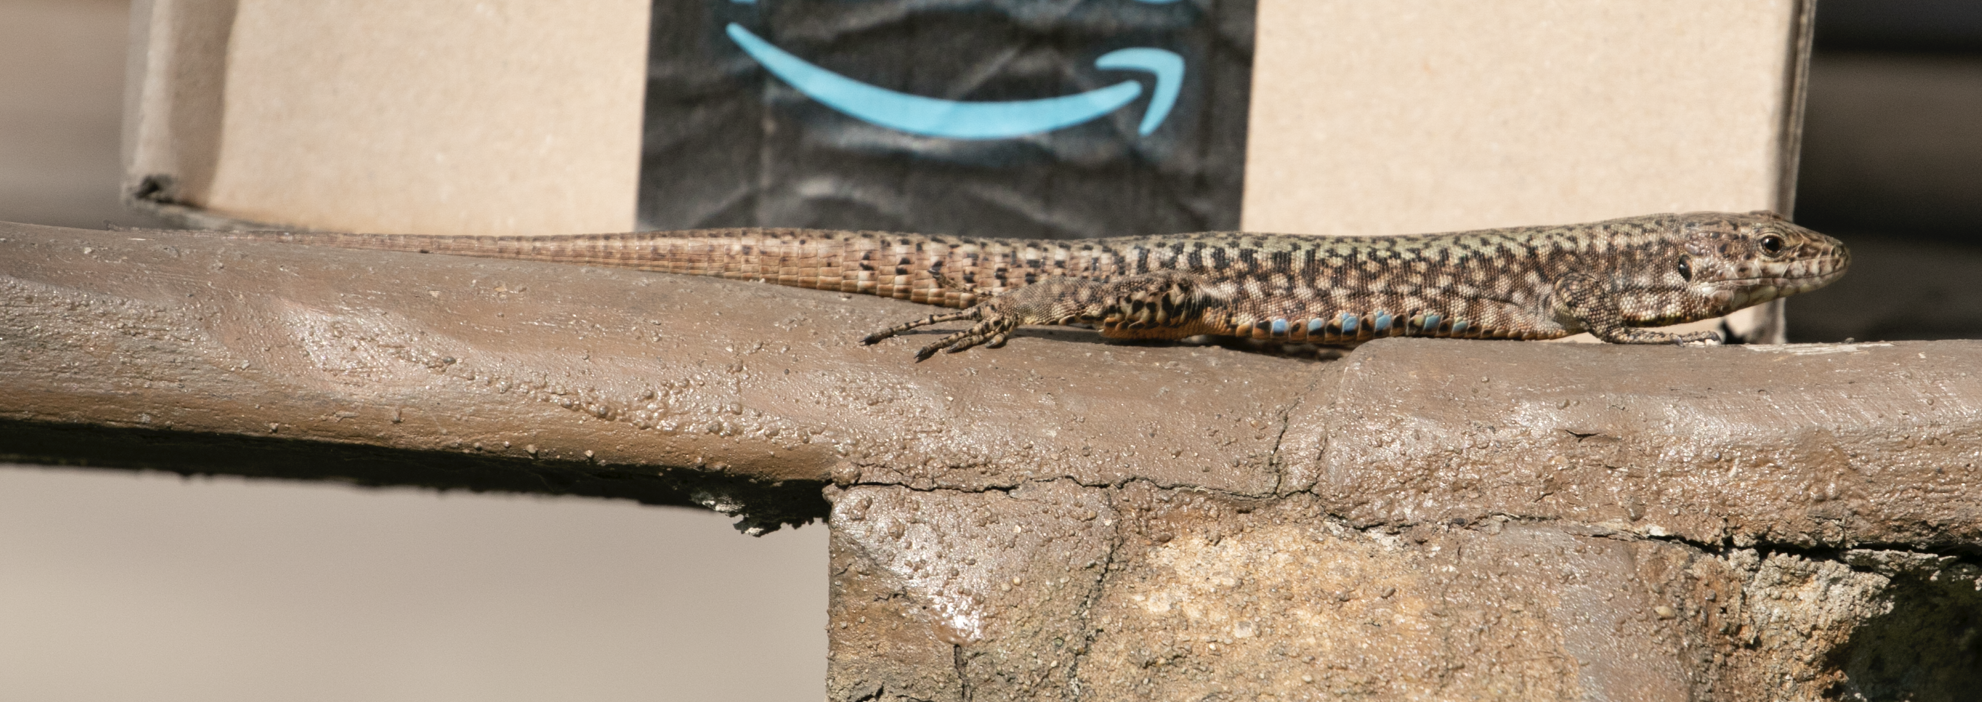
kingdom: Animalia
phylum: Chordata
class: Squamata
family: Lacertidae
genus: Podarcis
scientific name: Podarcis muralis
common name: Common wall lizard
